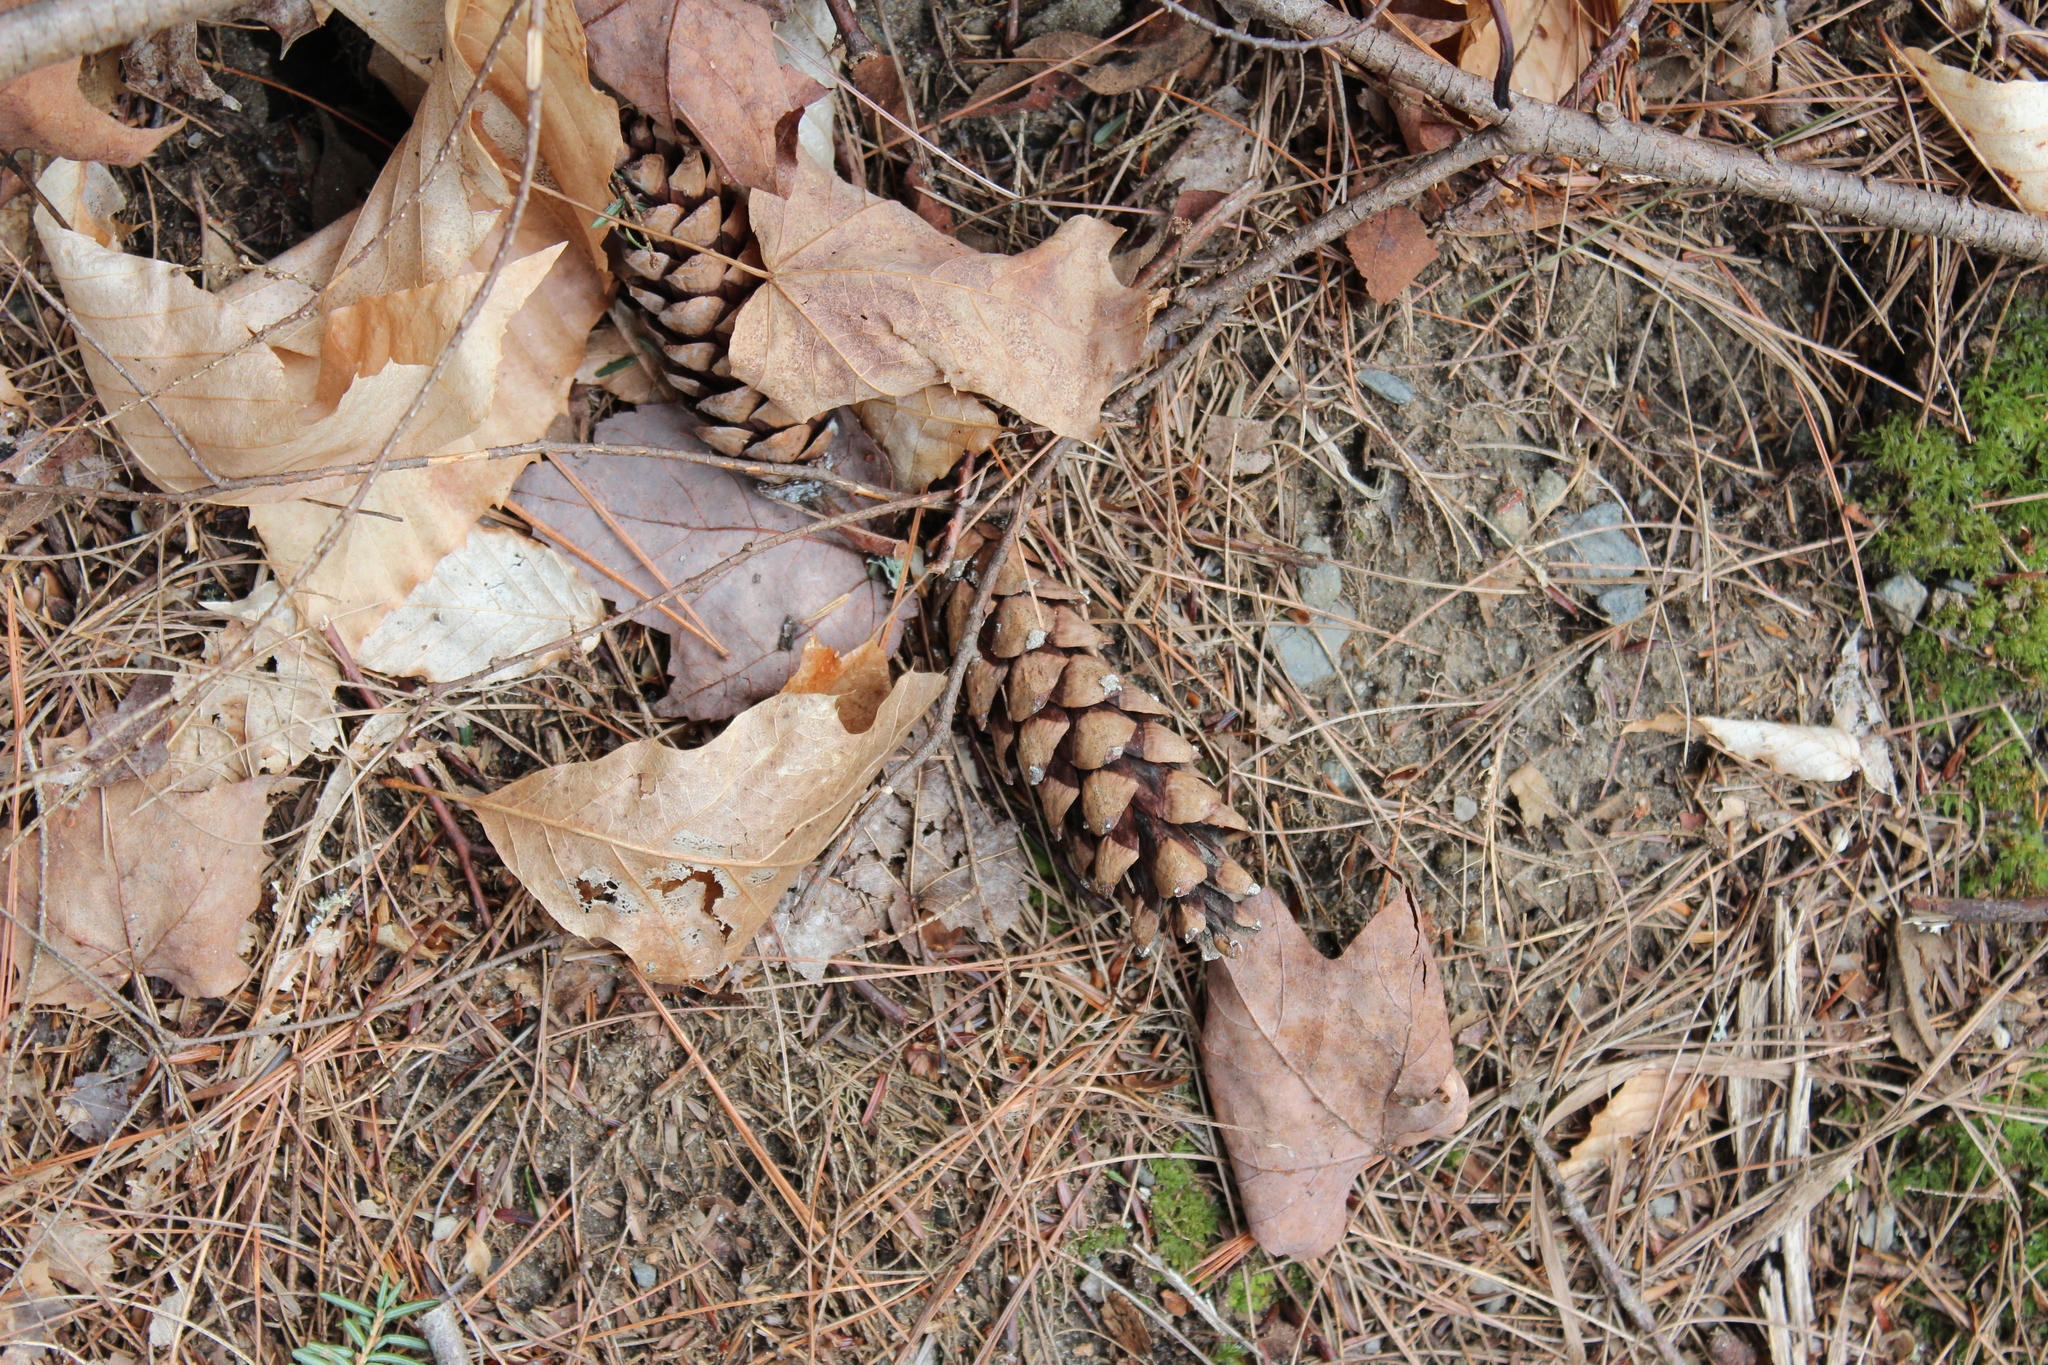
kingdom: Plantae
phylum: Tracheophyta
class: Pinopsida
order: Pinales
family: Pinaceae
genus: Pinus
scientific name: Pinus strobus
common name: Weymouth pine
